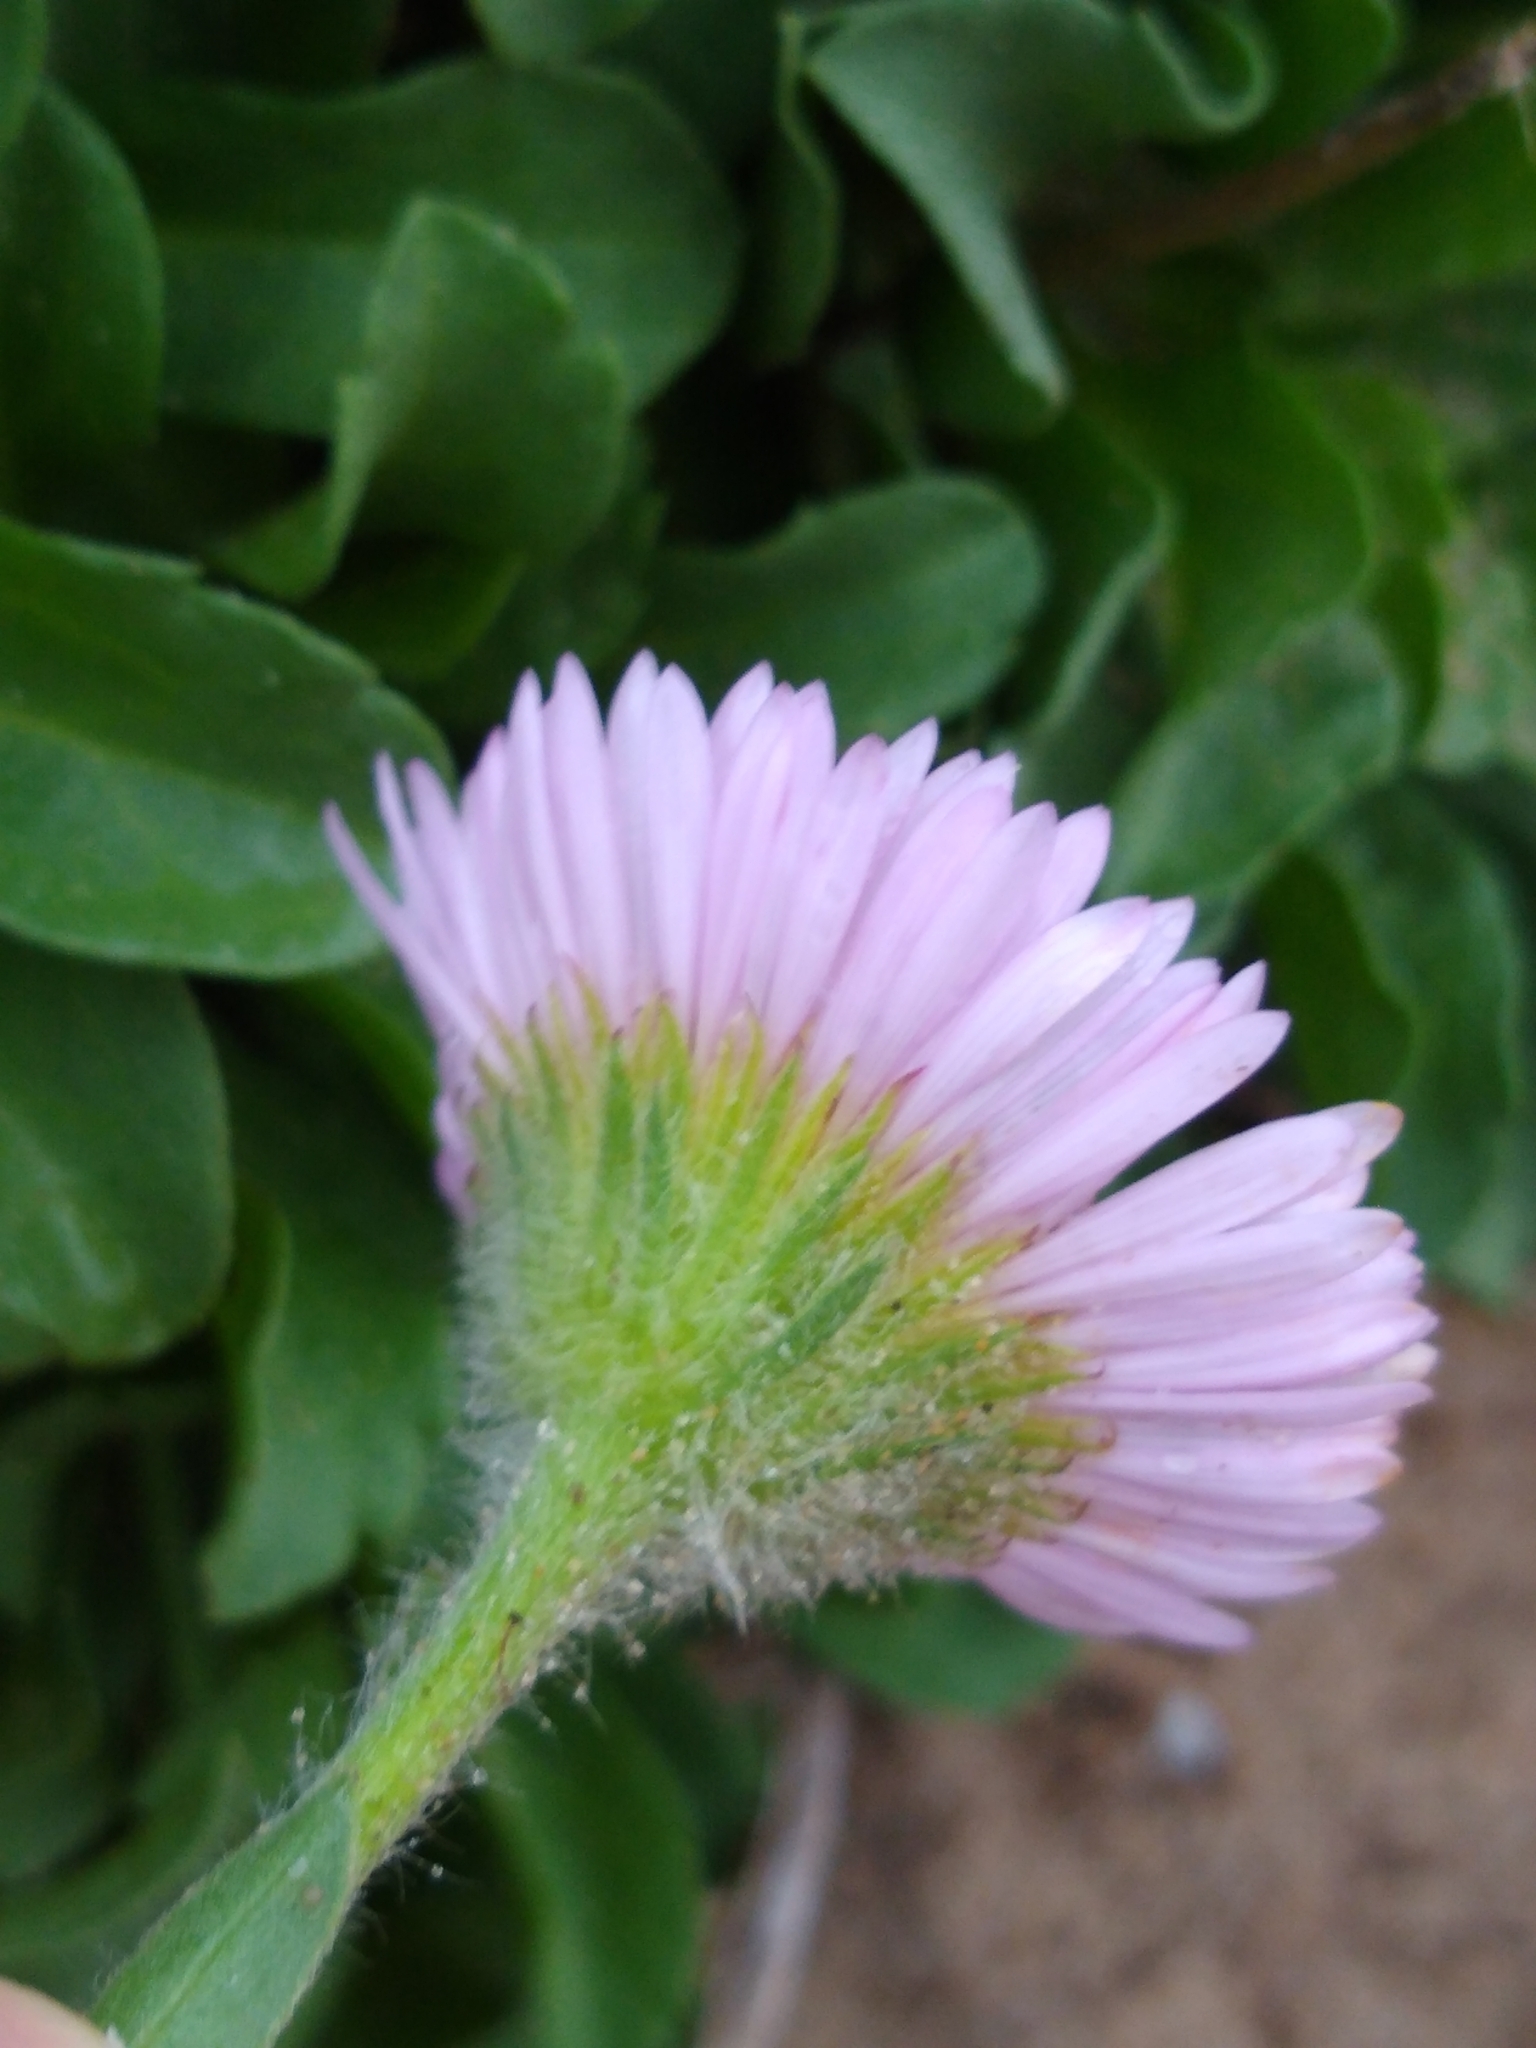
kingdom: Plantae
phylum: Tracheophyta
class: Magnoliopsida
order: Asterales
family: Asteraceae
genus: Erigeron
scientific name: Erigeron glaucus
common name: Seaside daisy
